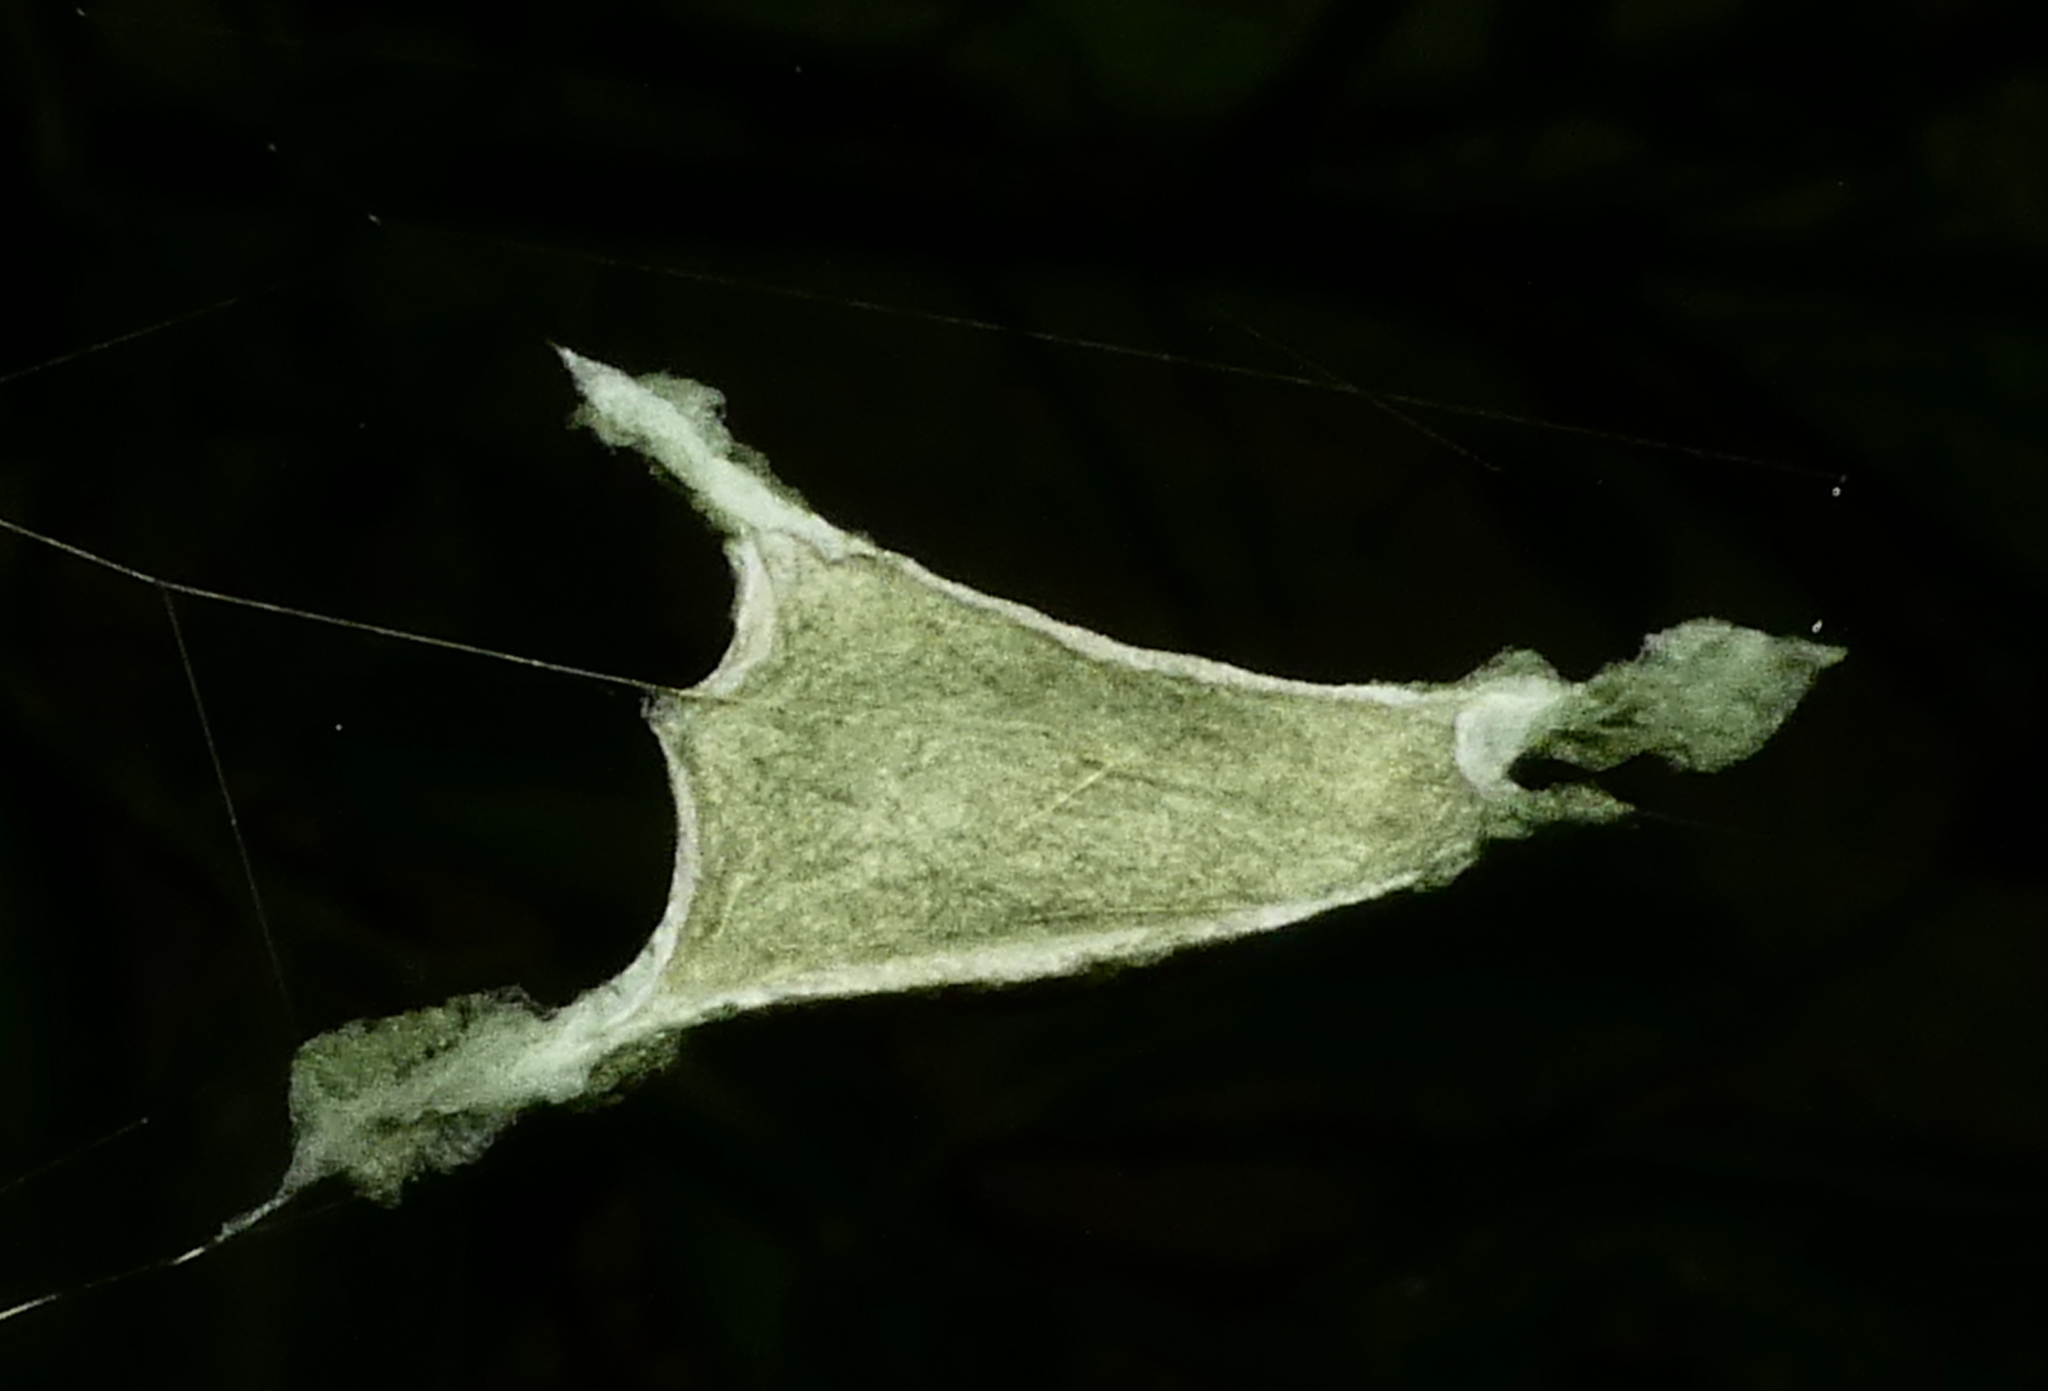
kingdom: Animalia
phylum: Arthropoda
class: Arachnida
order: Araneae
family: Araneidae
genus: Argiope
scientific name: Argiope argentata
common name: Orb weavers
